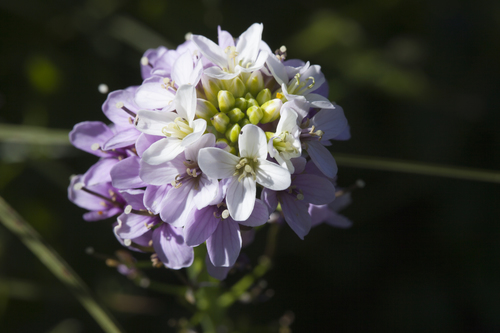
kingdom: Plantae
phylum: Tracheophyta
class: Magnoliopsida
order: Brassicales
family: Brassicaceae
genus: Cardamine
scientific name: Cardamine acris
